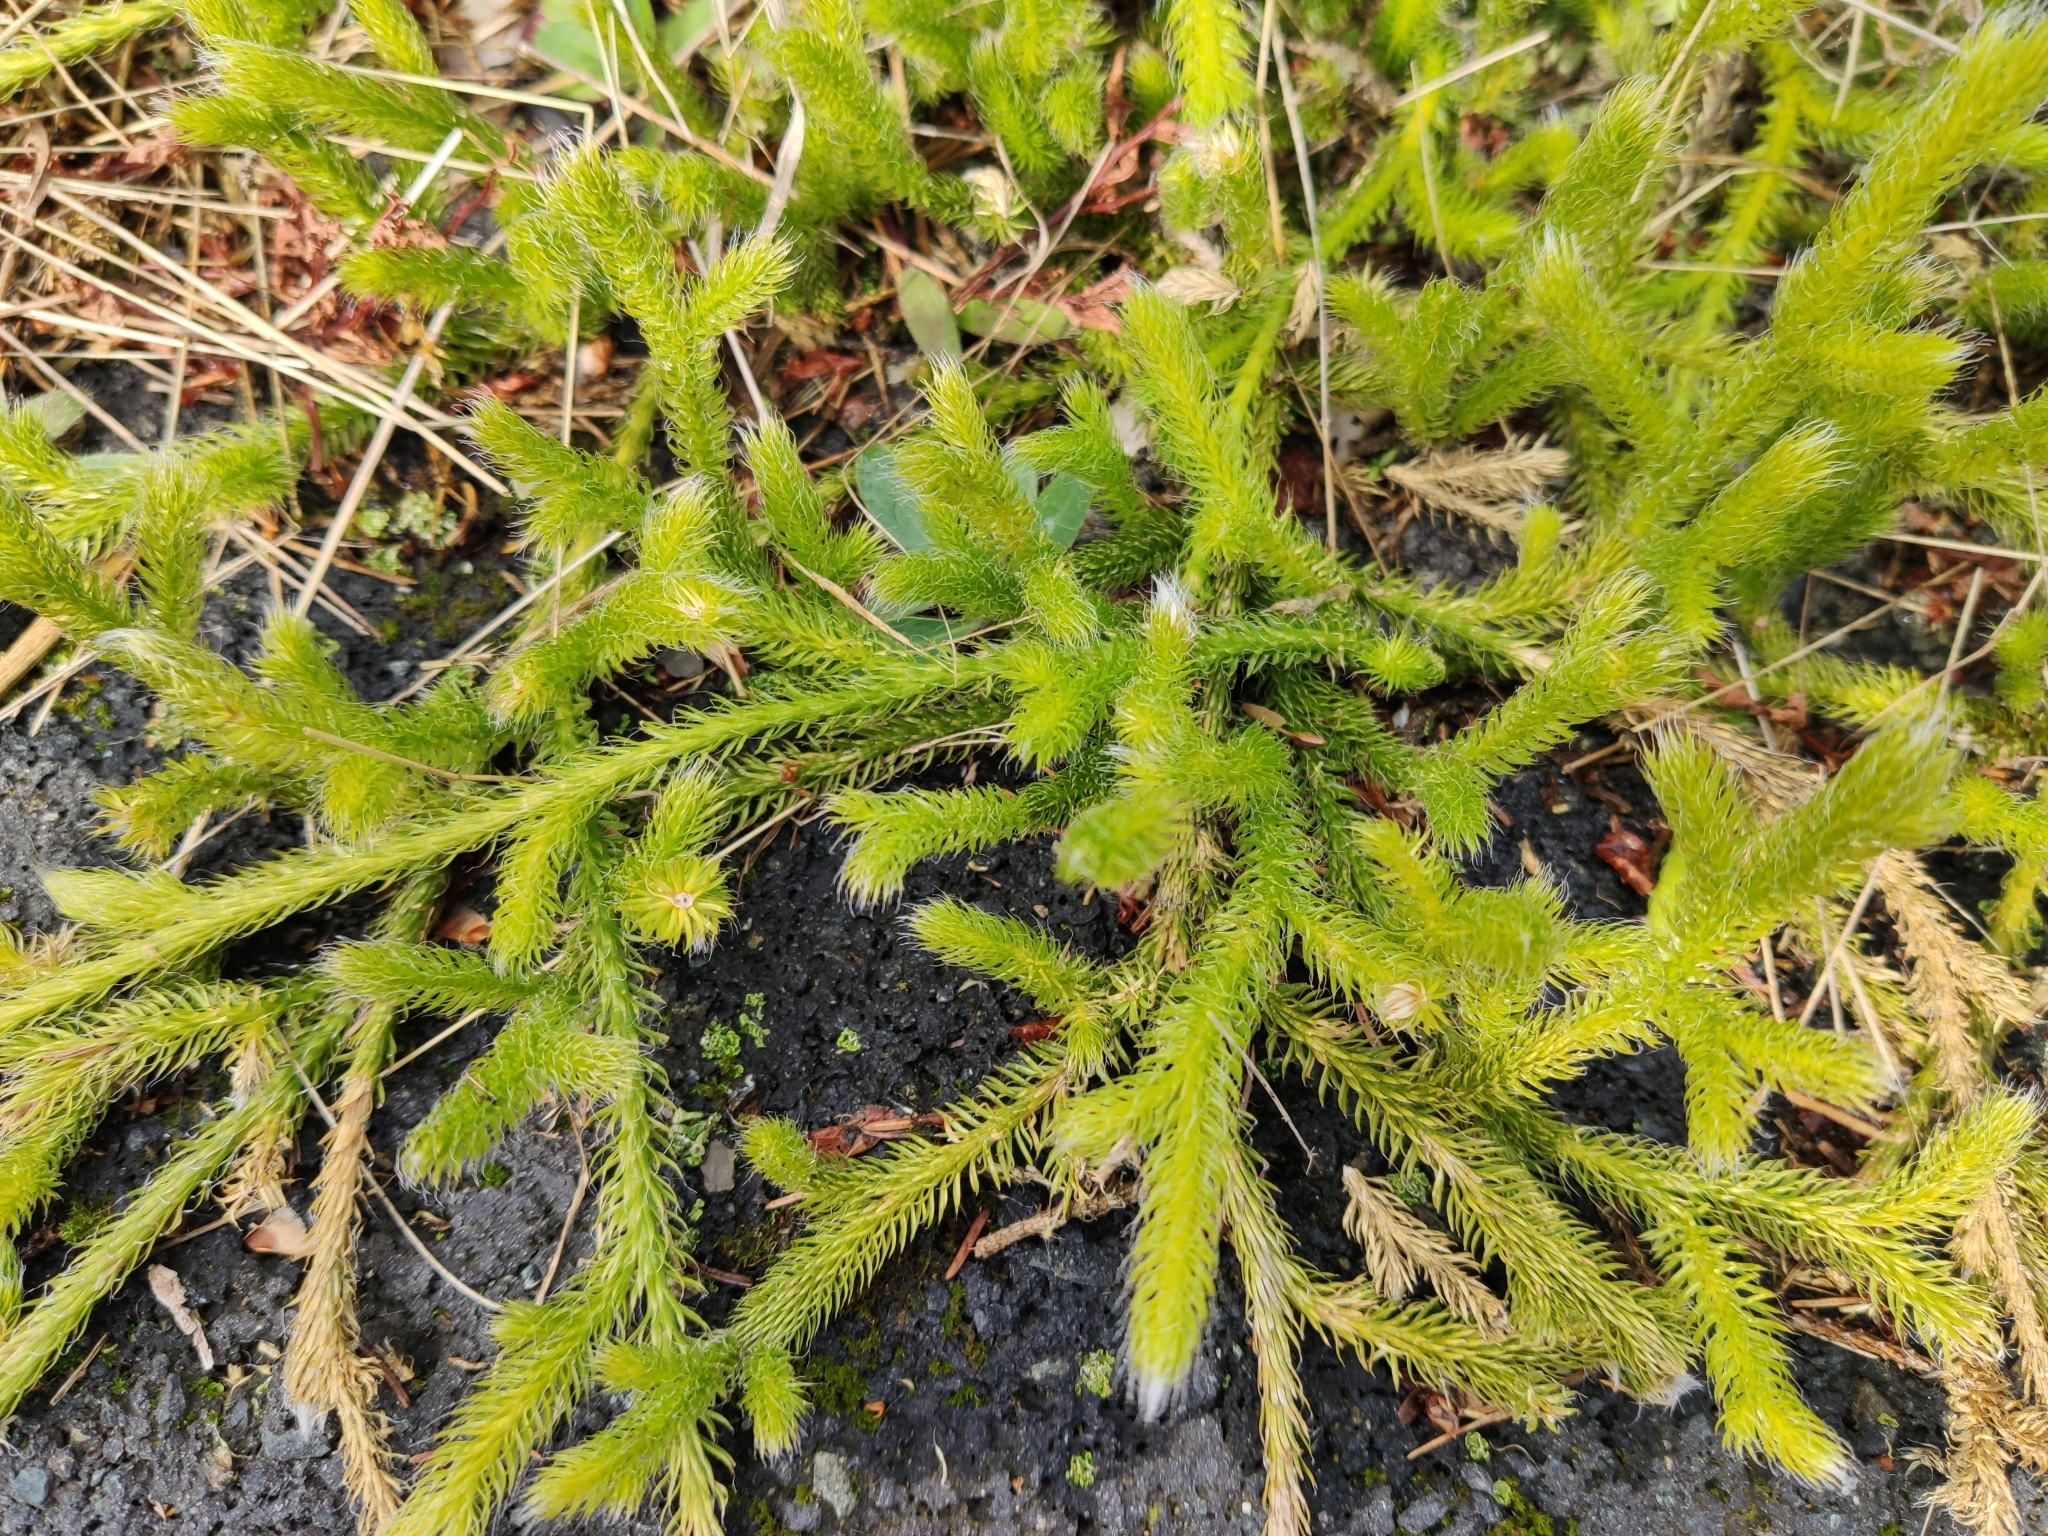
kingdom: Plantae
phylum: Tracheophyta
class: Lycopodiopsida
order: Lycopodiales
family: Lycopodiaceae
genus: Lycopodium
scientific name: Lycopodium clavatum
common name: Stag's-horn clubmoss
